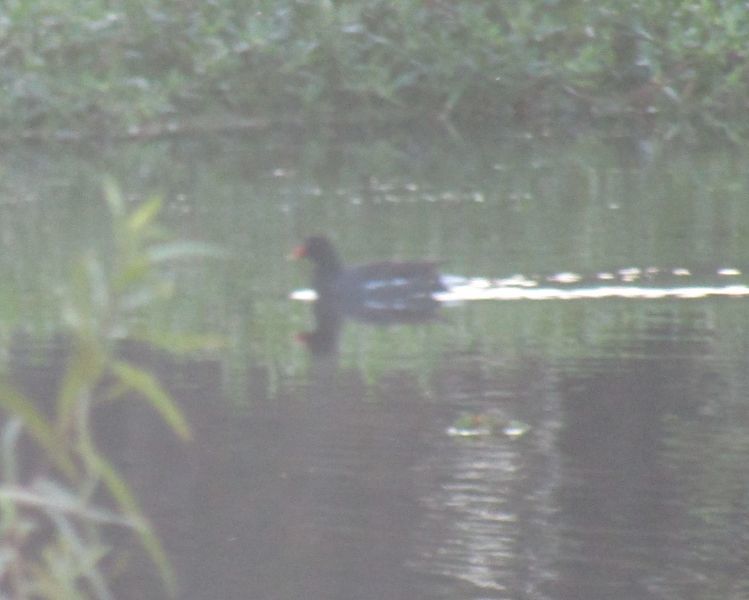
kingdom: Animalia
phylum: Chordata
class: Aves
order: Gruiformes
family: Rallidae
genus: Gallinula
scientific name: Gallinula chloropus
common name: Common moorhen
